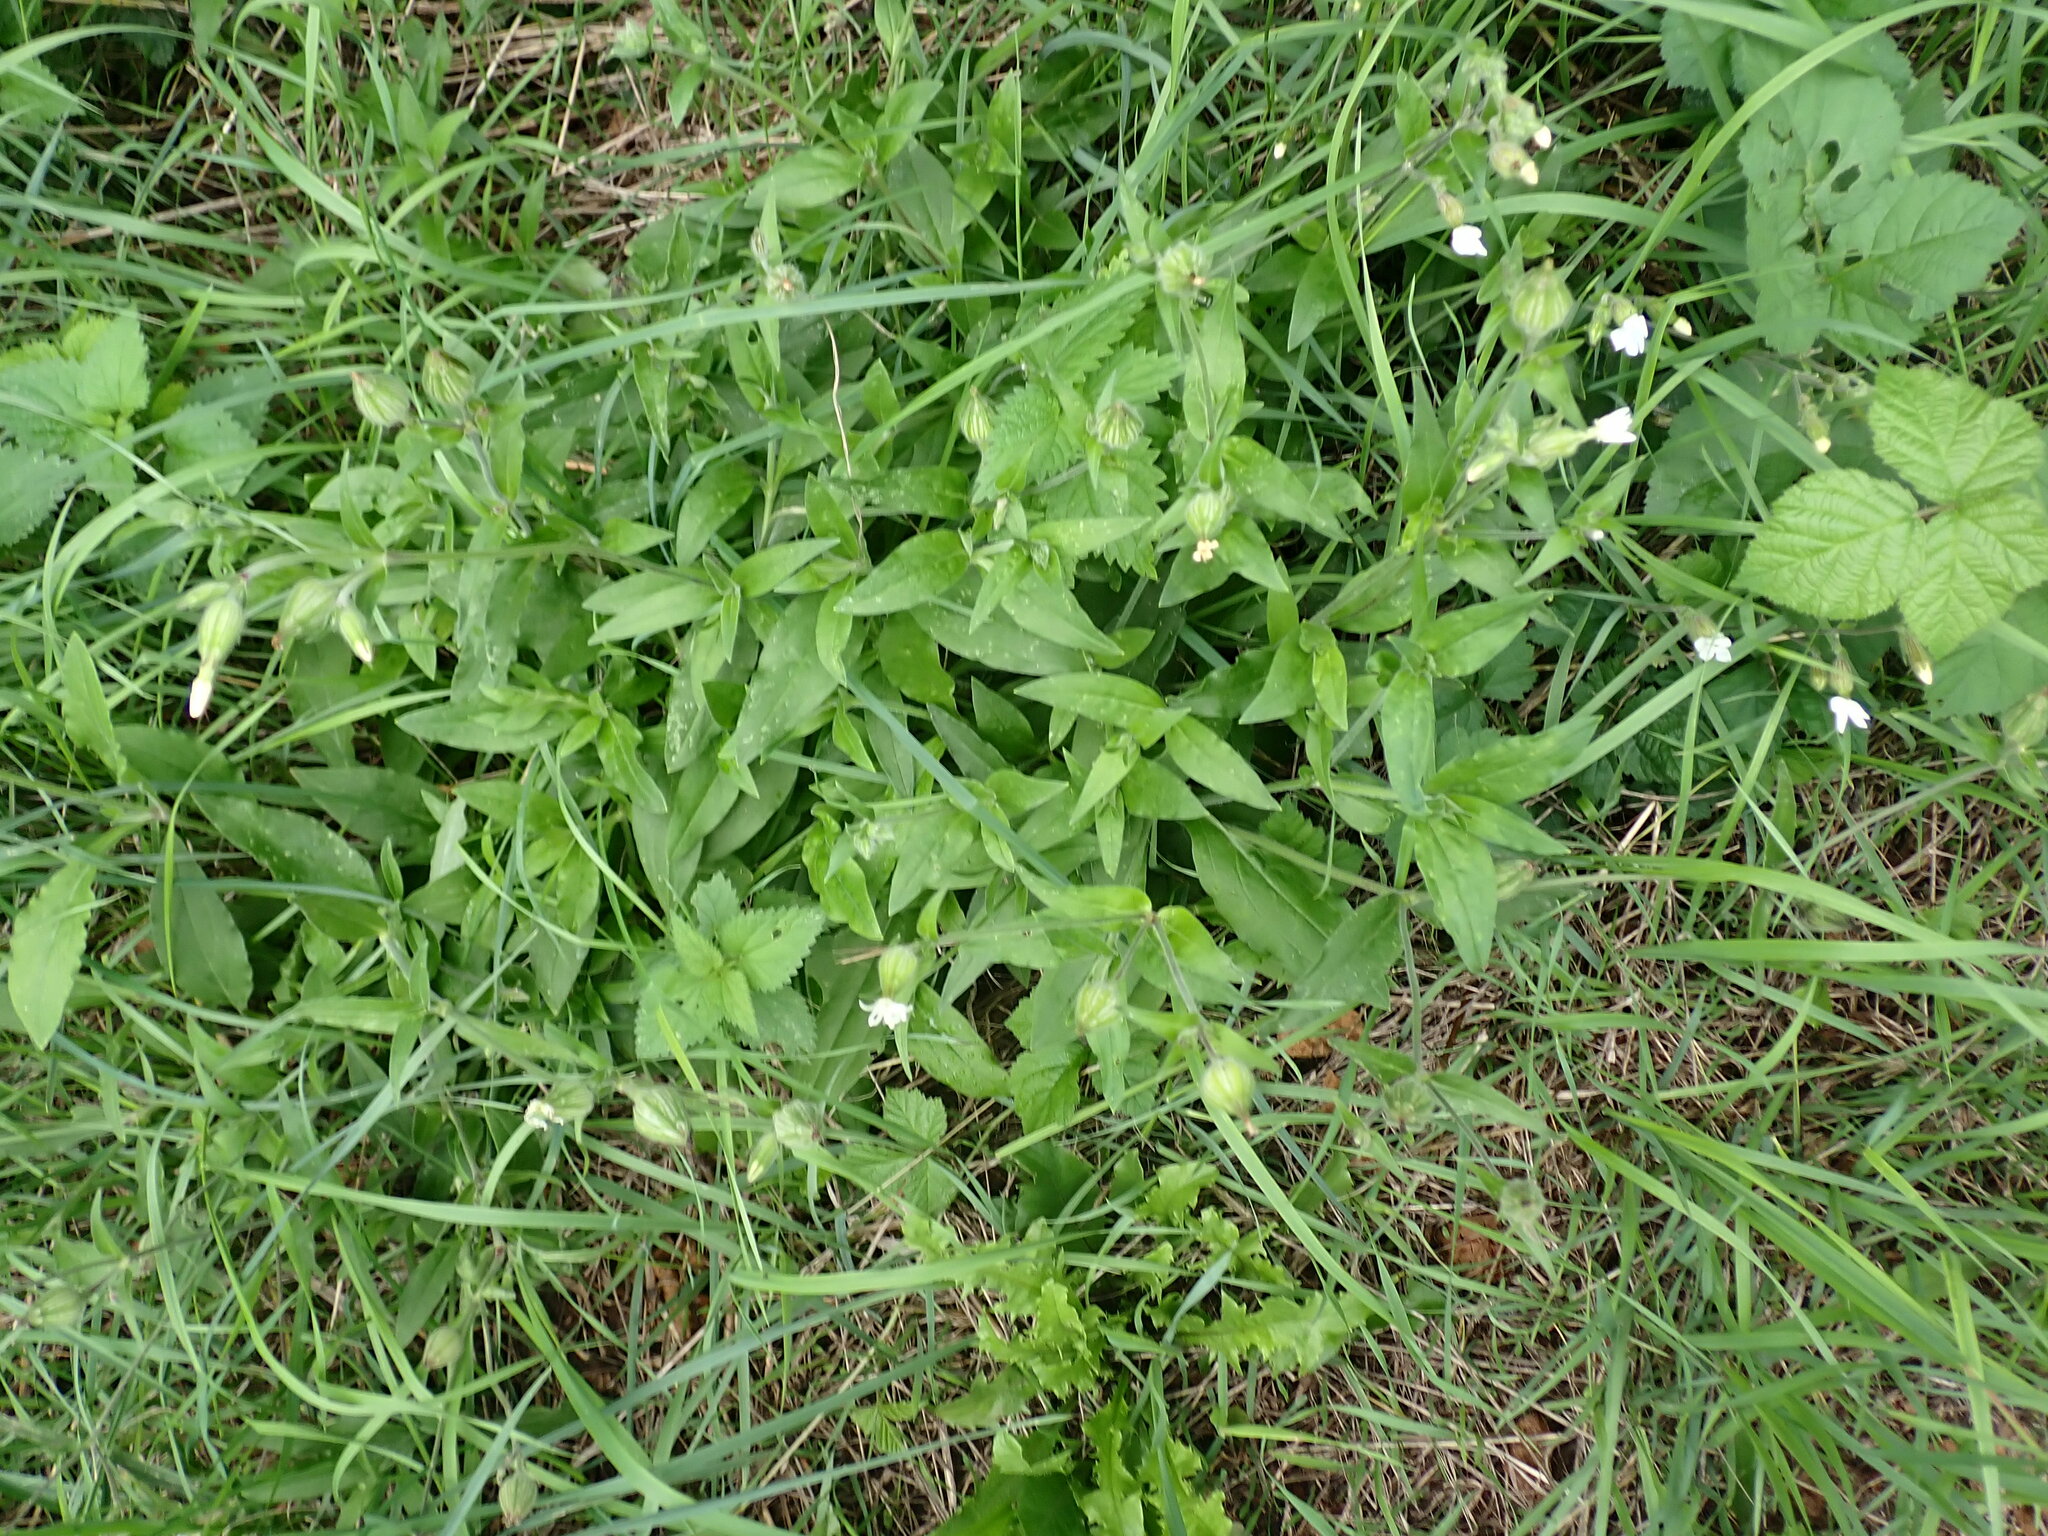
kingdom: Plantae
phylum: Tracheophyta
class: Magnoliopsida
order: Caryophyllales
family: Caryophyllaceae
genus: Silene
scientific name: Silene latifolia
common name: White campion
